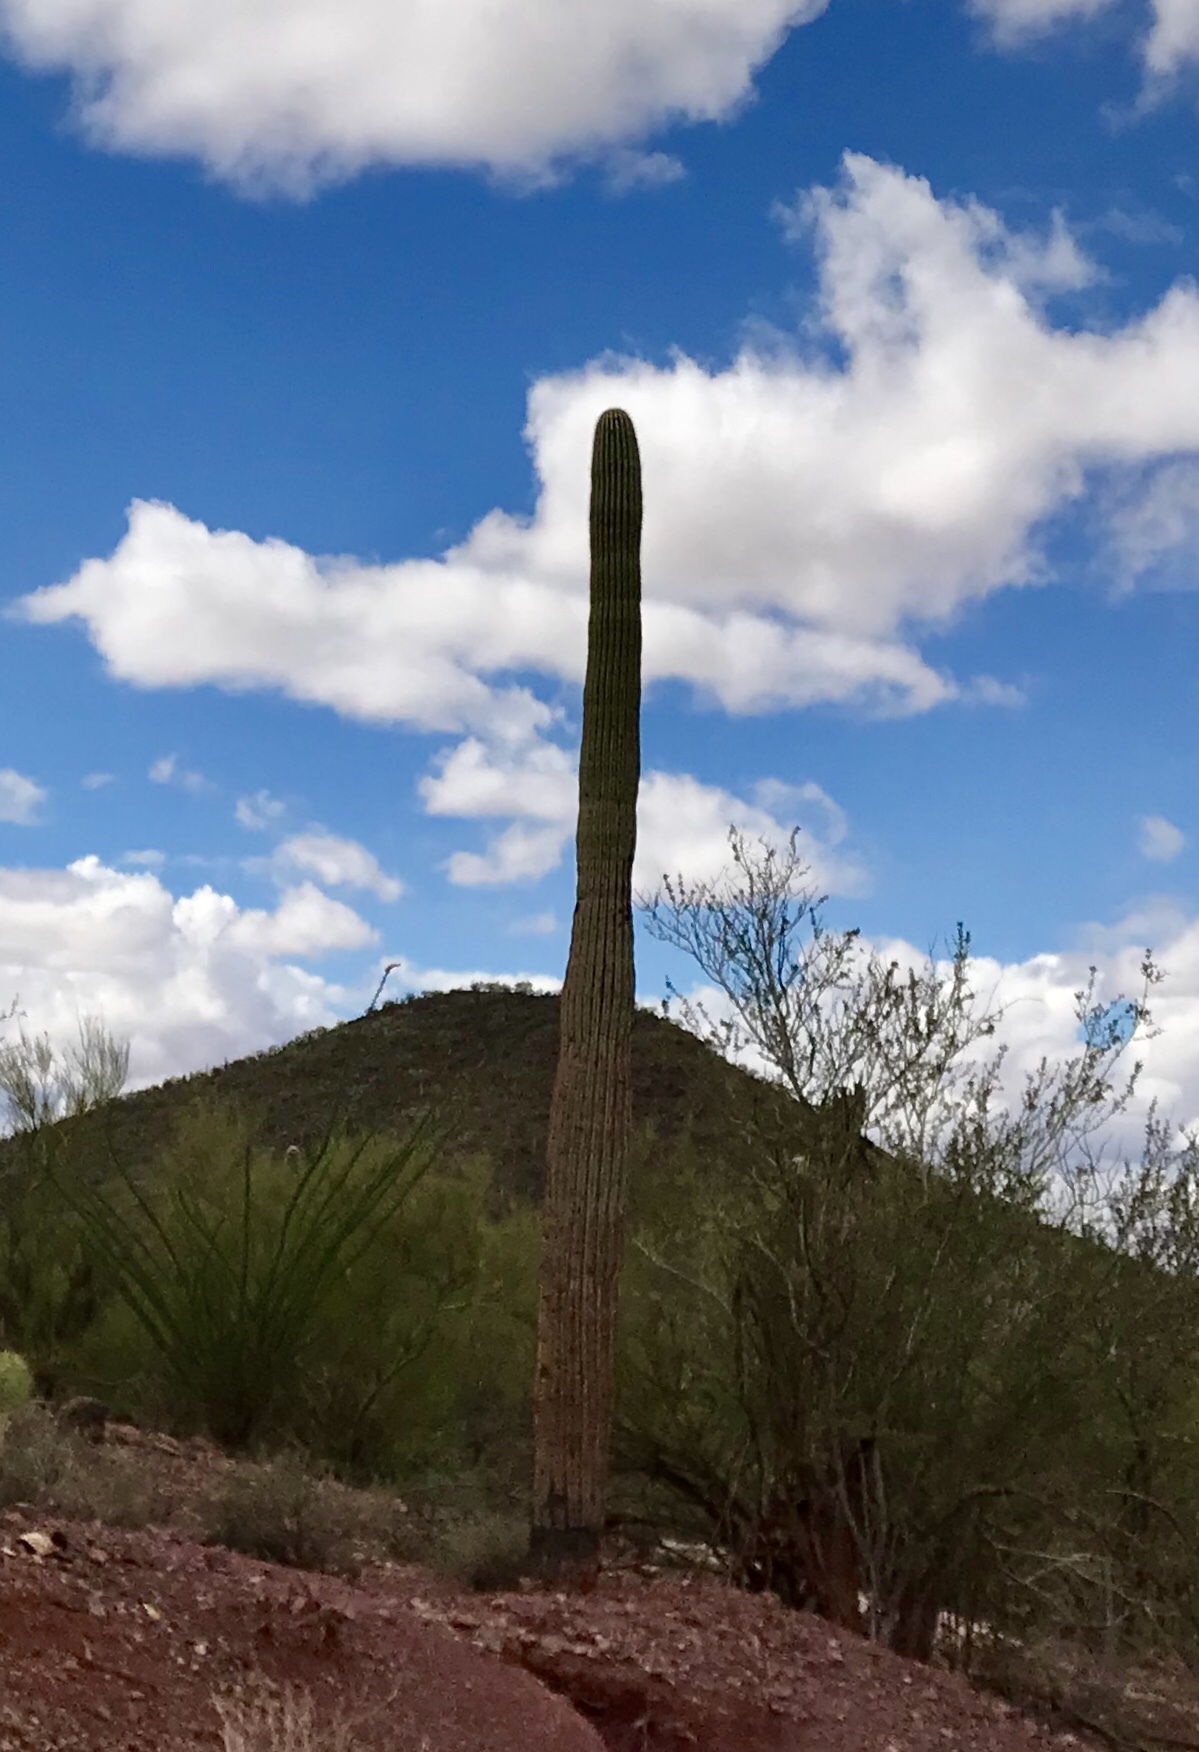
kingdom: Plantae
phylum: Tracheophyta
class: Magnoliopsida
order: Caryophyllales
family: Cactaceae
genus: Carnegiea
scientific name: Carnegiea gigantea
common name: Saguaro
